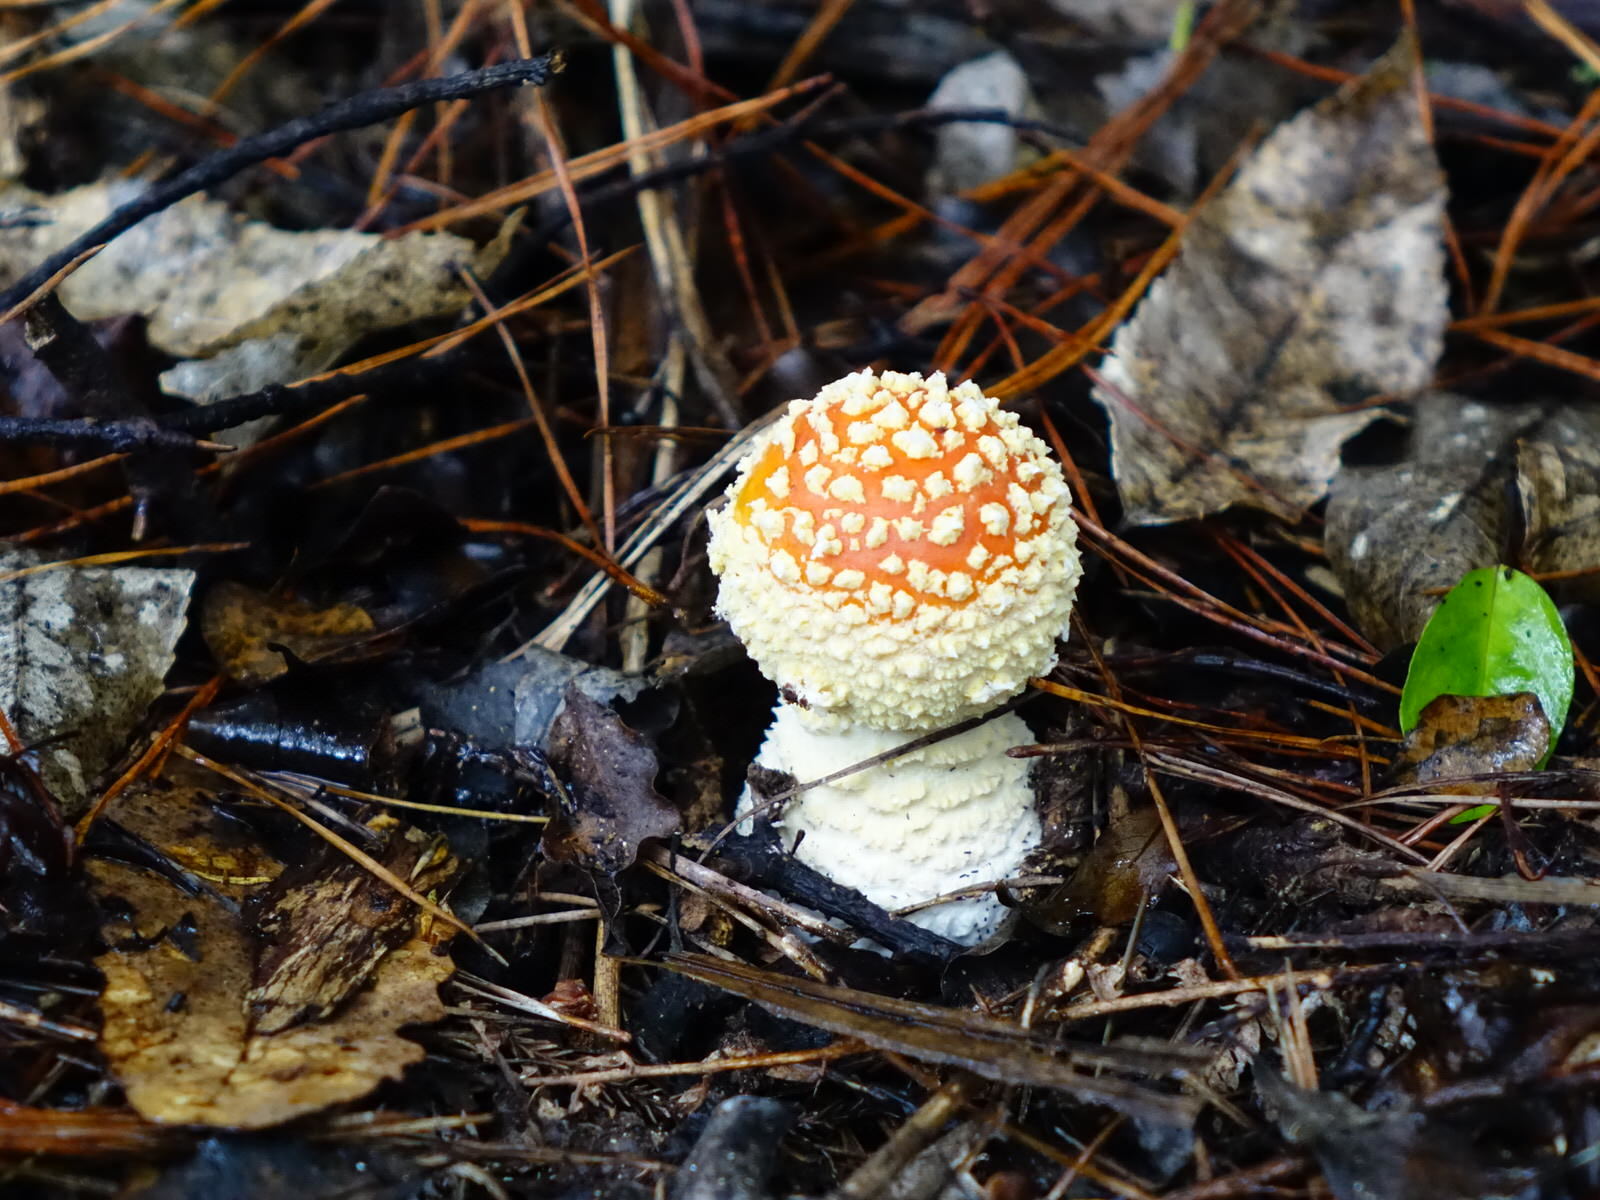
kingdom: Fungi
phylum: Basidiomycota
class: Agaricomycetes
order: Agaricales
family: Amanitaceae
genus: Amanita
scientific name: Amanita muscaria
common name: Fly agaric
